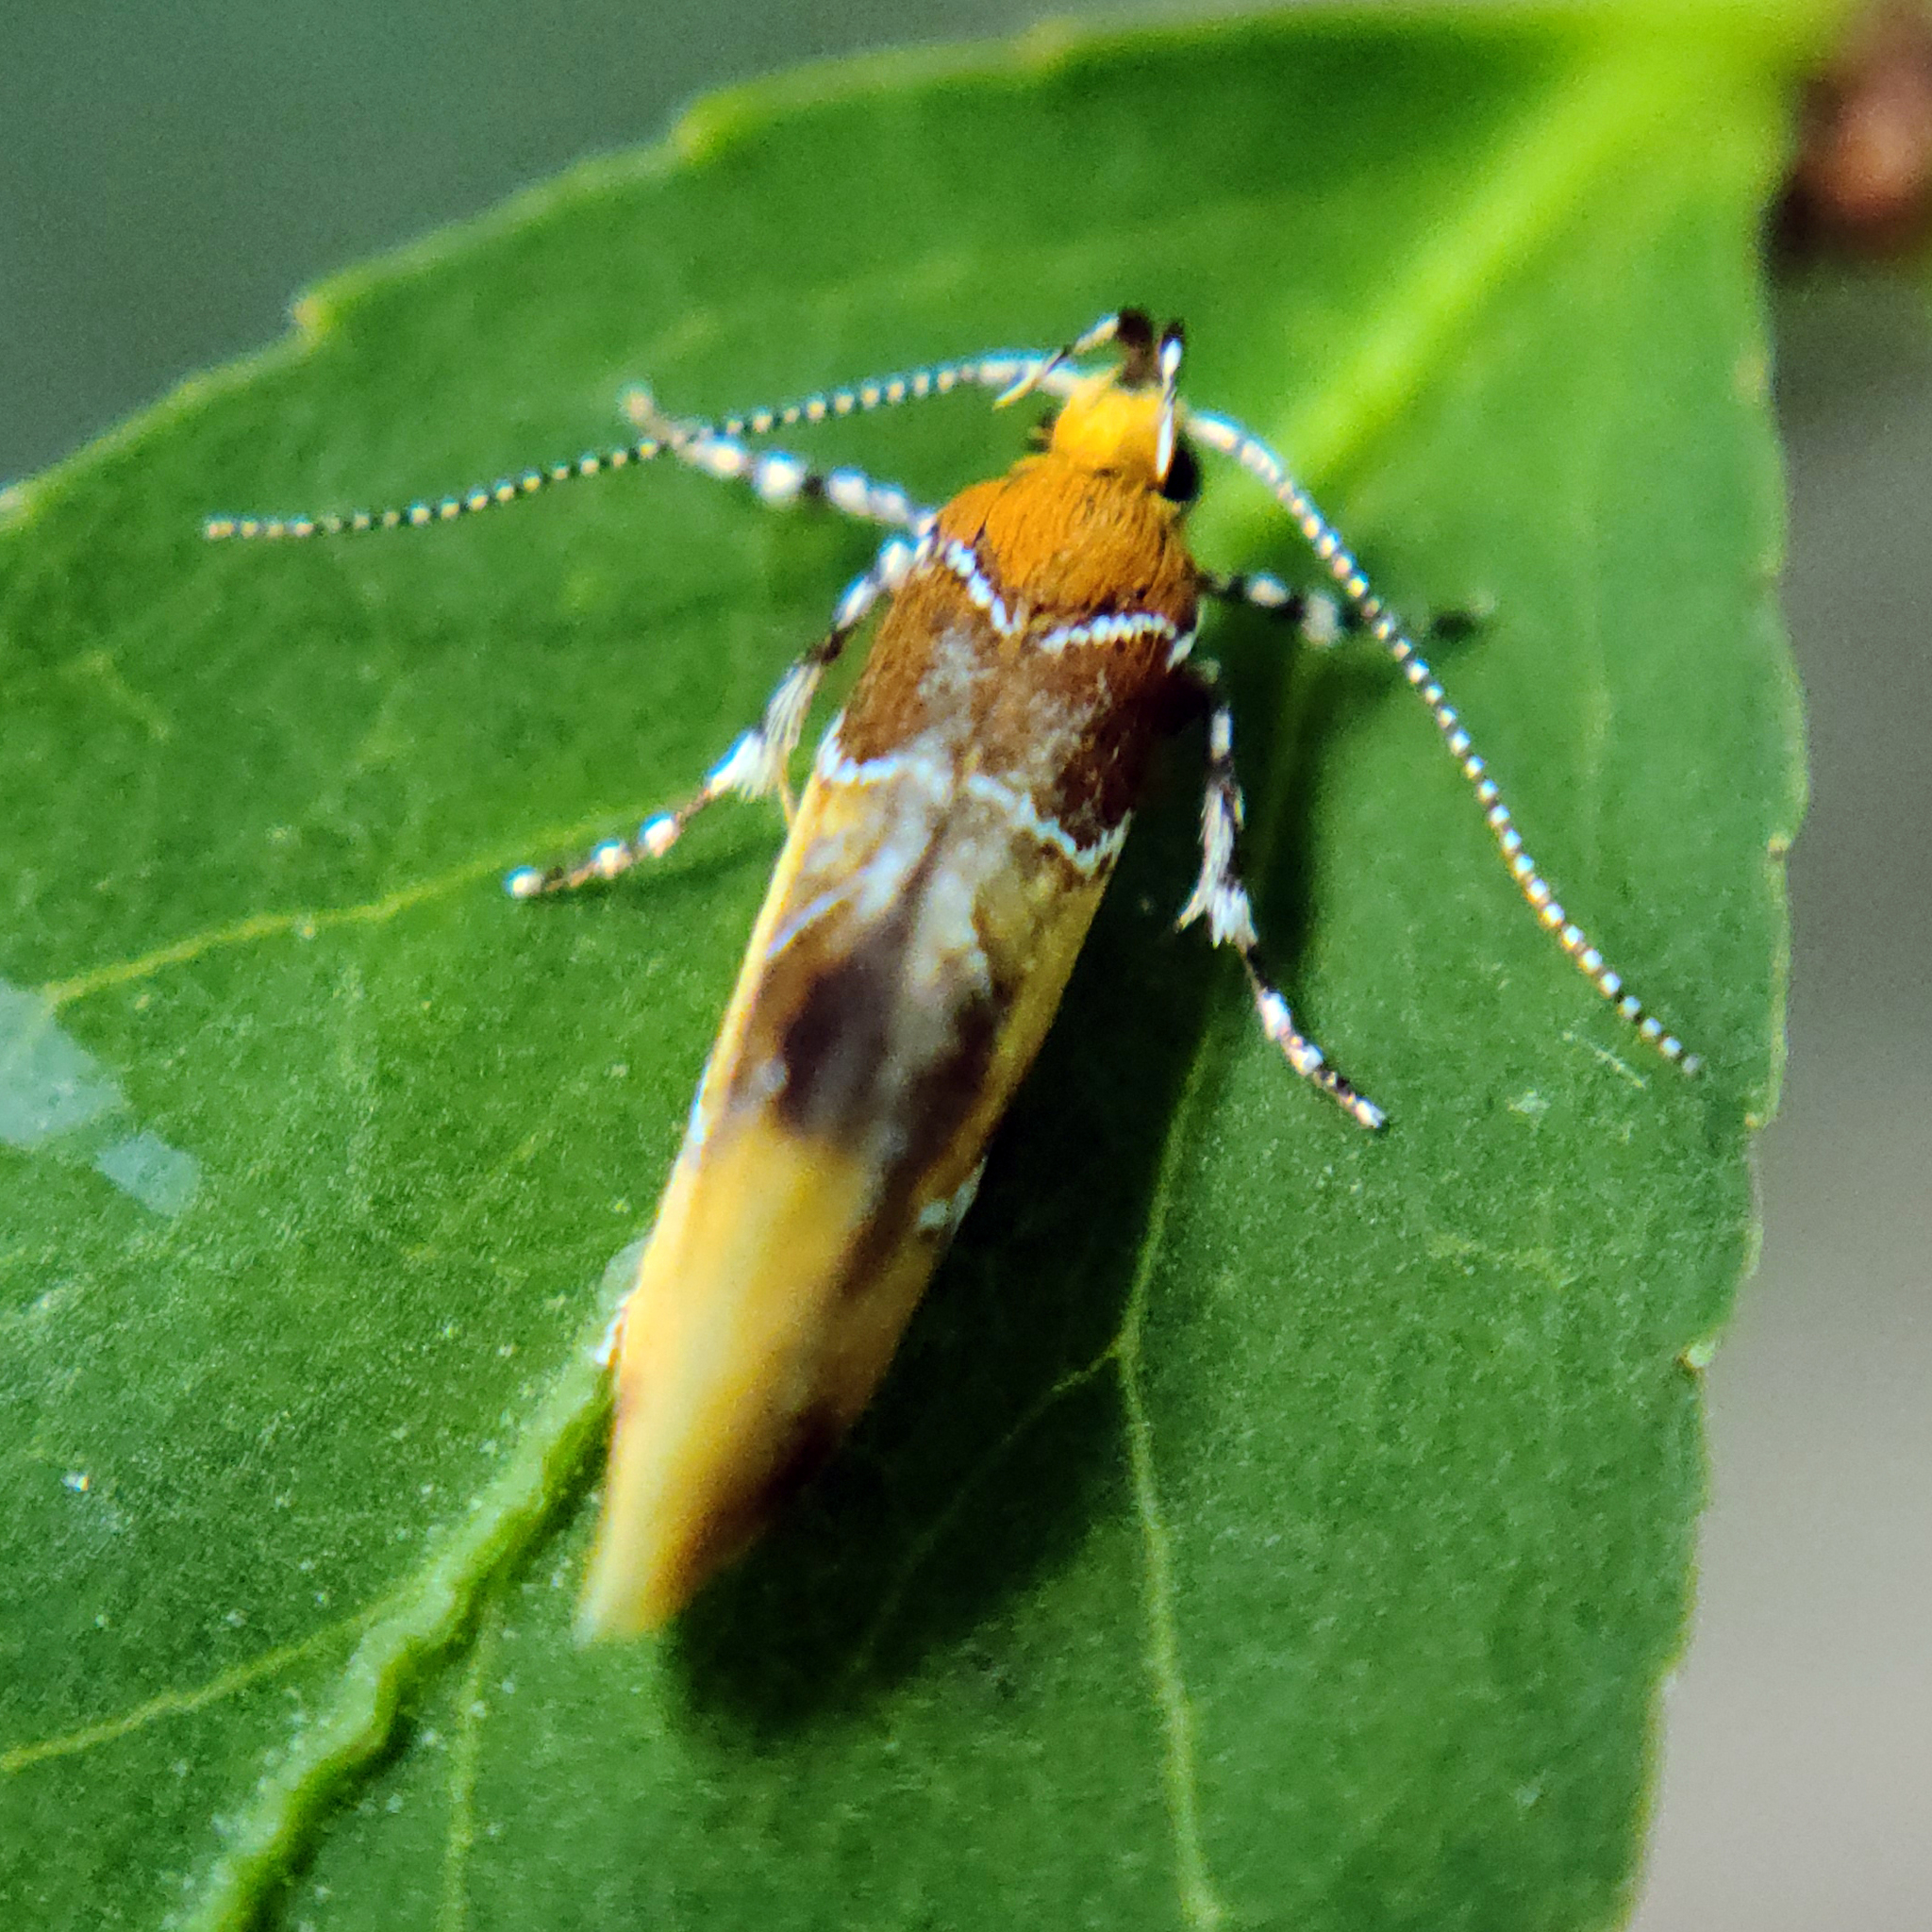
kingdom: Animalia
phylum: Arthropoda
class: Insecta
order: Lepidoptera
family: Oecophoridae
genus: Callima
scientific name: Callima argenticinctella
